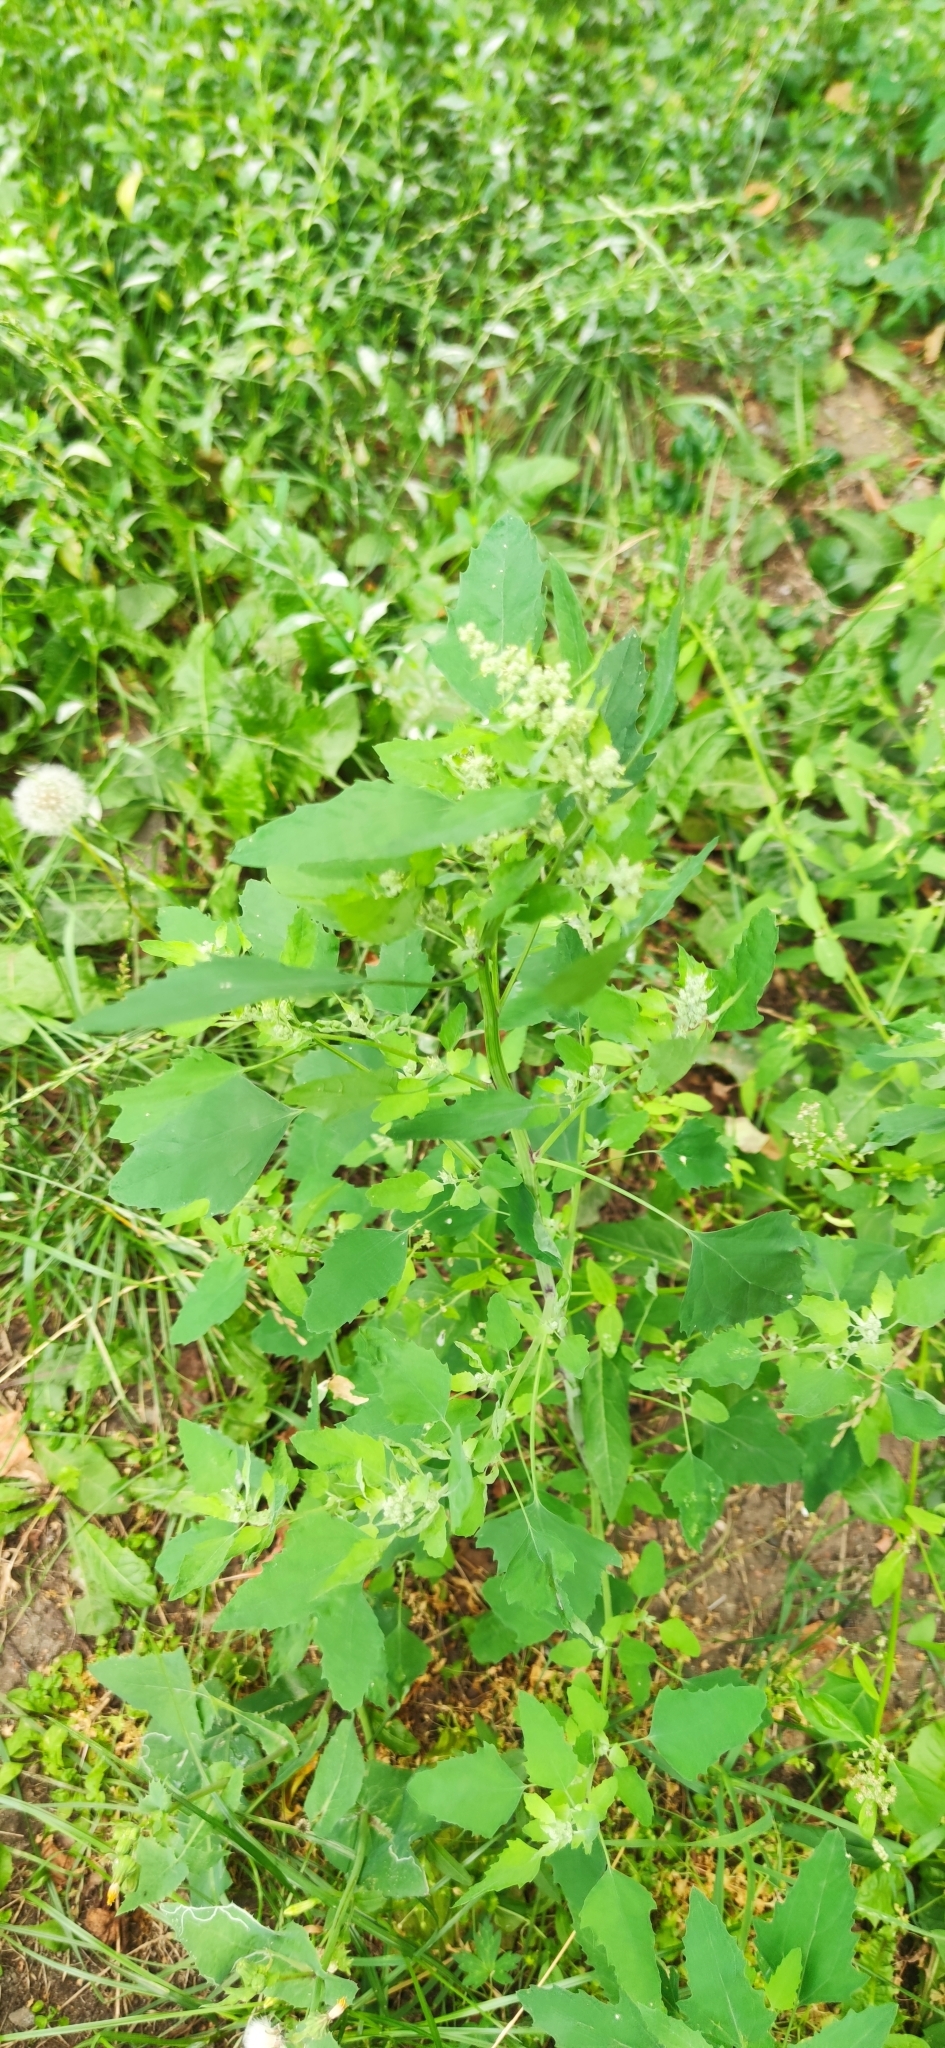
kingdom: Plantae
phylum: Tracheophyta
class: Magnoliopsida
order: Caryophyllales
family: Amaranthaceae
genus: Chenopodium
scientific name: Chenopodium album
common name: Fat-hen
